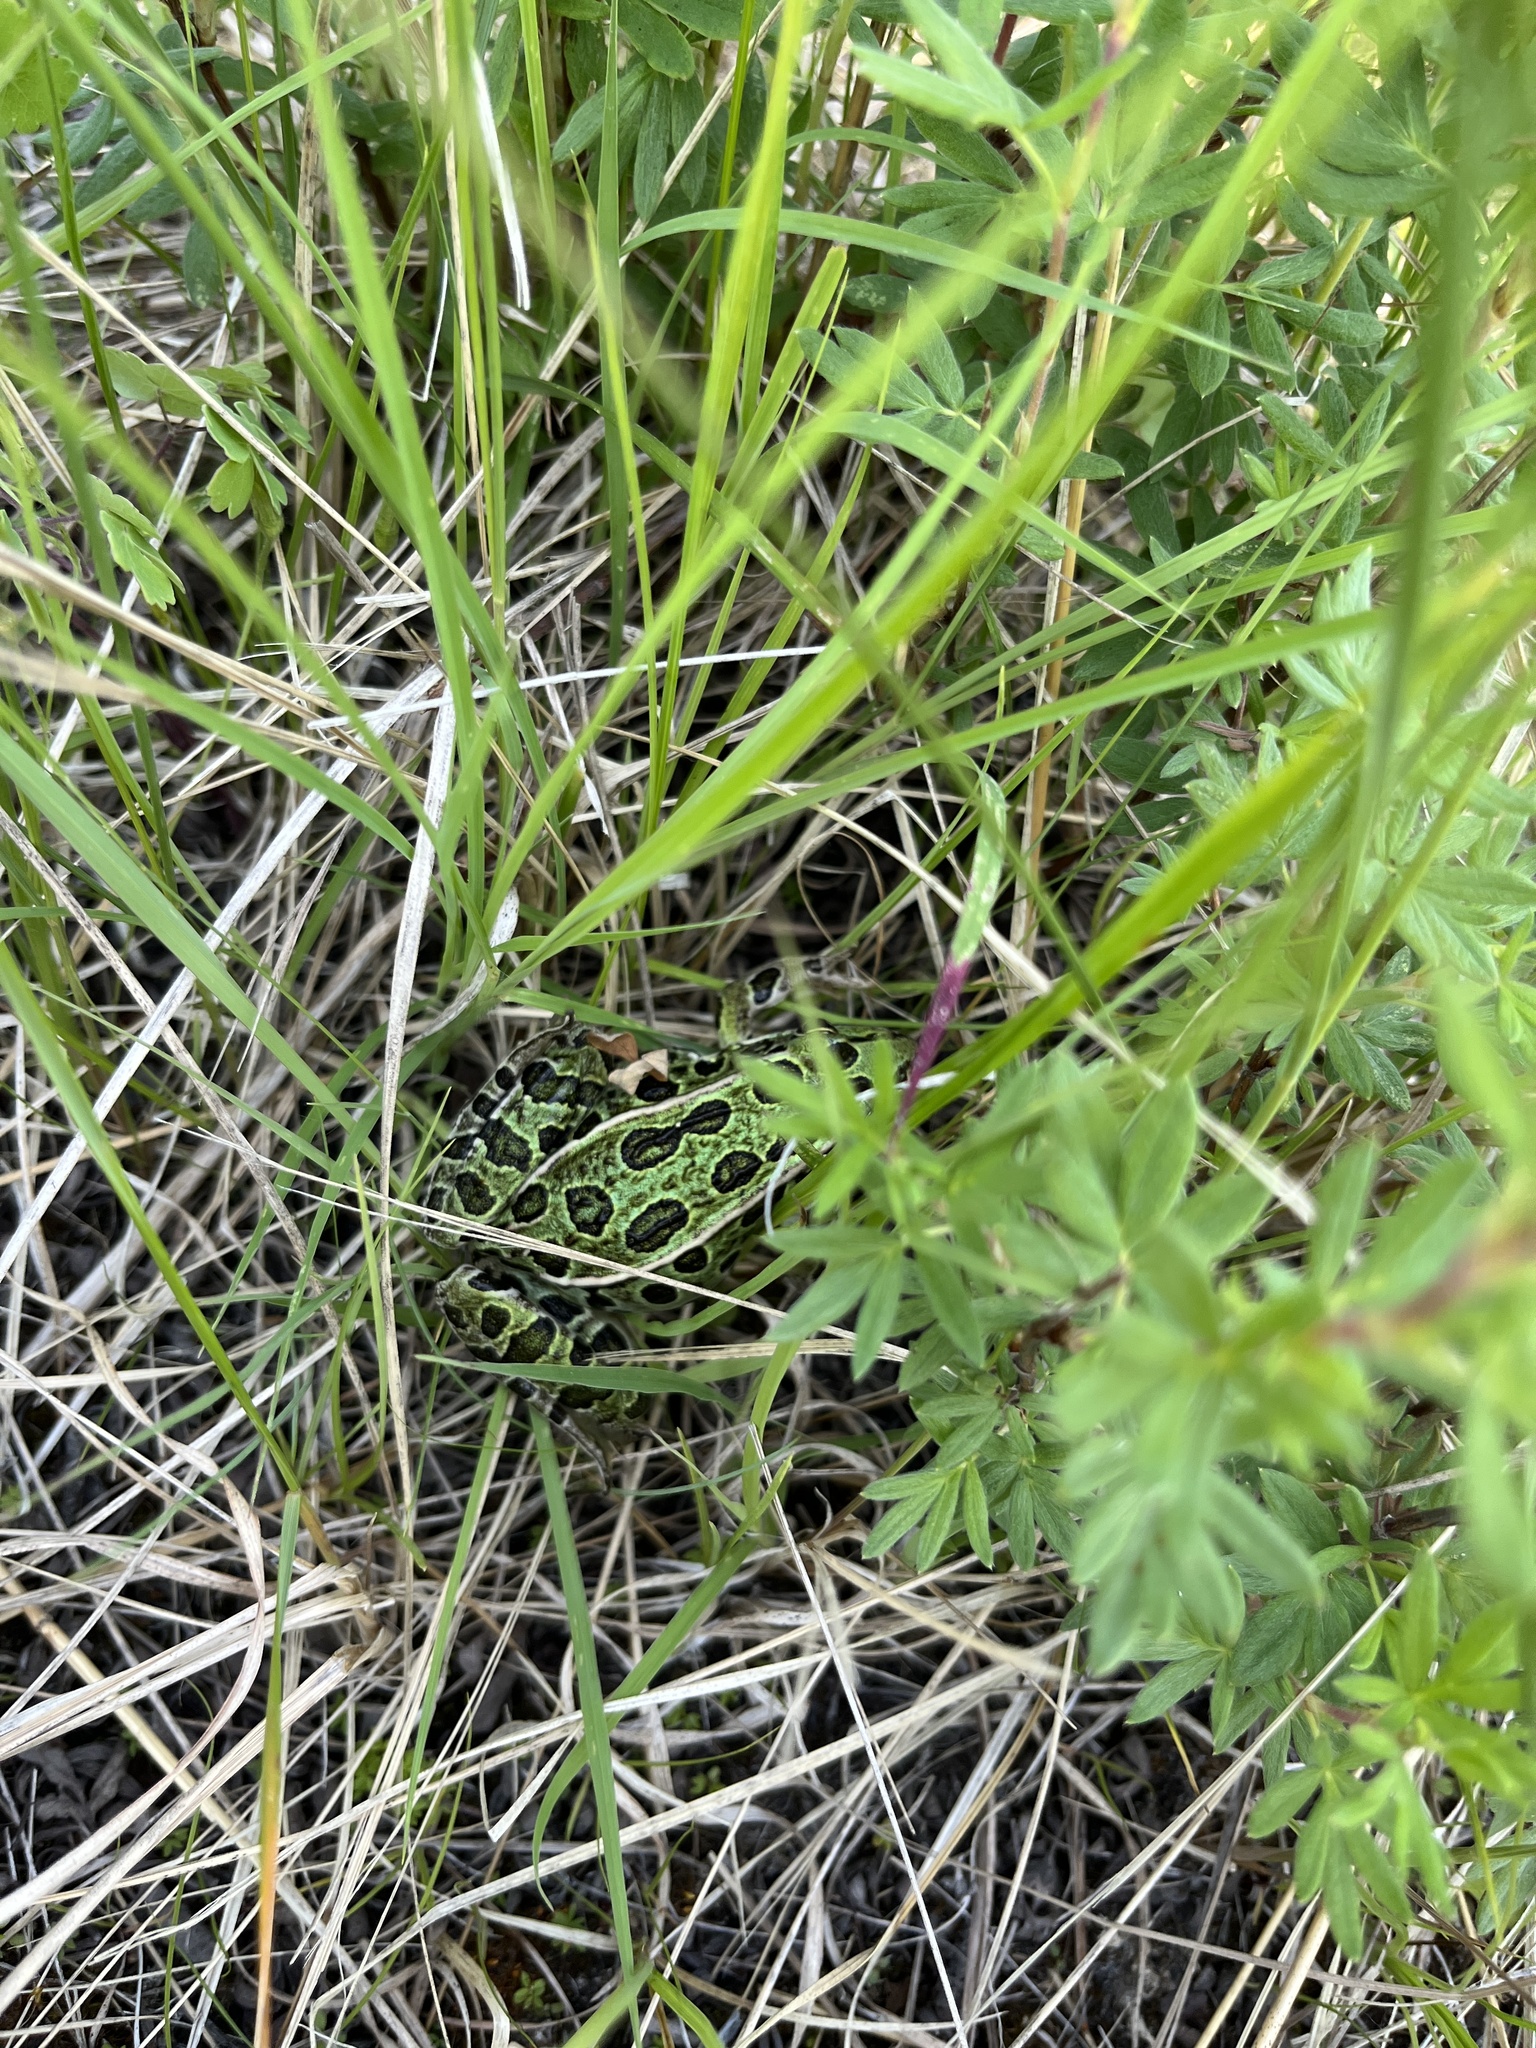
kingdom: Animalia
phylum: Chordata
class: Amphibia
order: Anura
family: Ranidae
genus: Lithobates
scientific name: Lithobates pipiens
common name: Northern leopard frog
